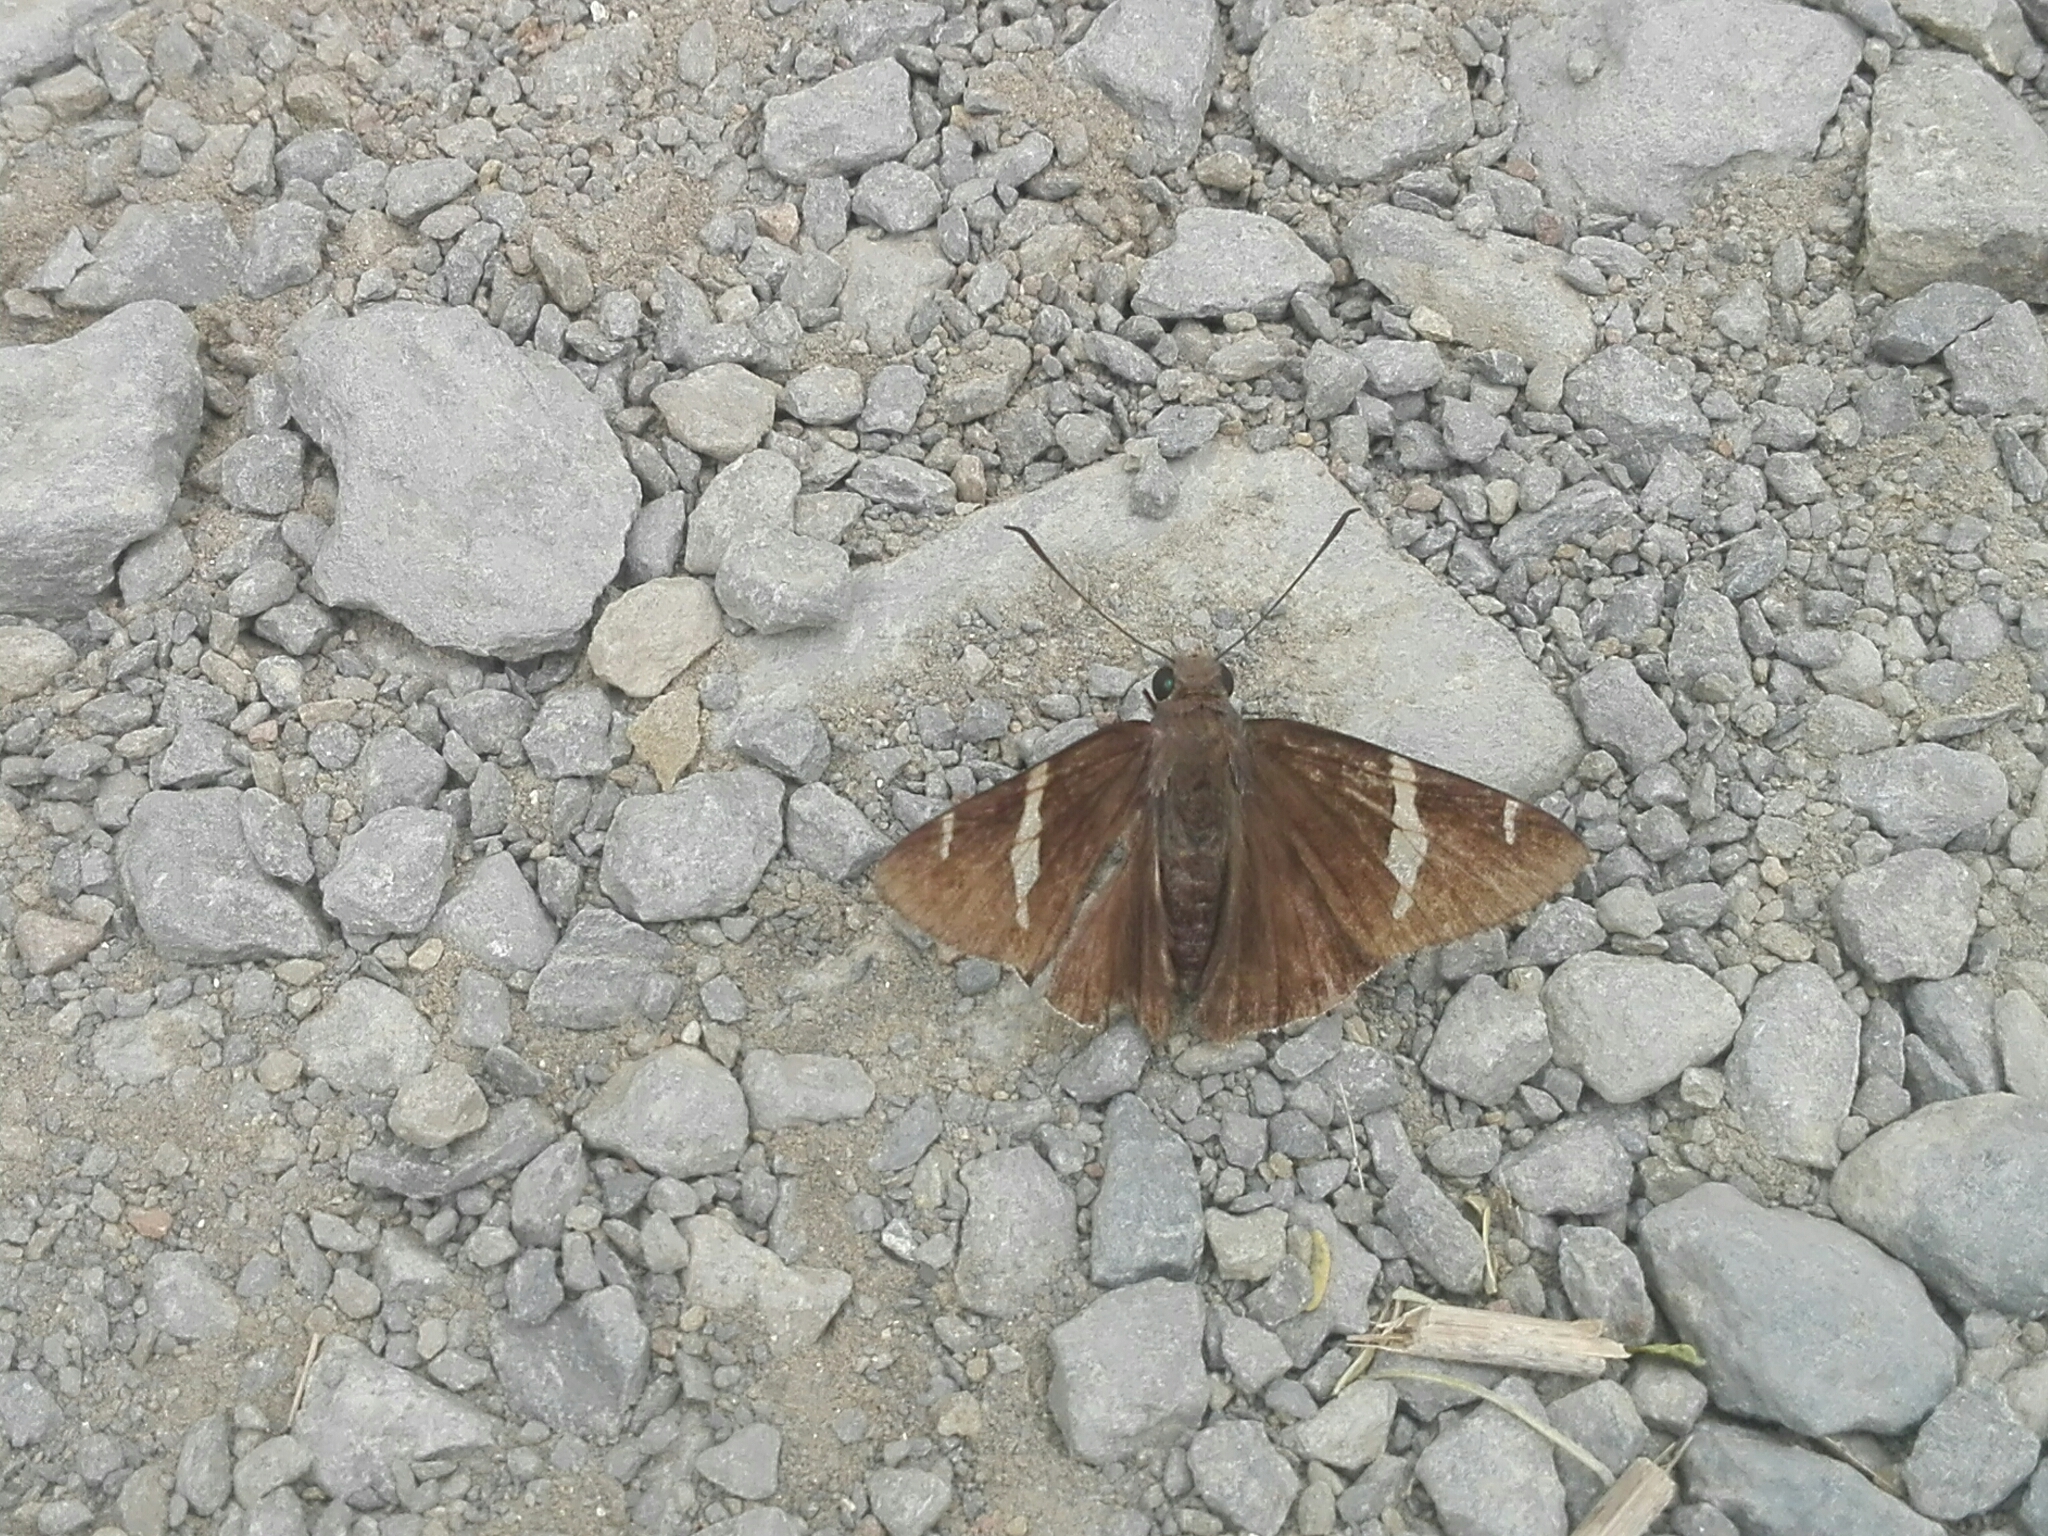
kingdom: Animalia
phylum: Arthropoda
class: Insecta
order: Lepidoptera
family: Hesperiidae
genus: Thorybes
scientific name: Thorybes cincta
